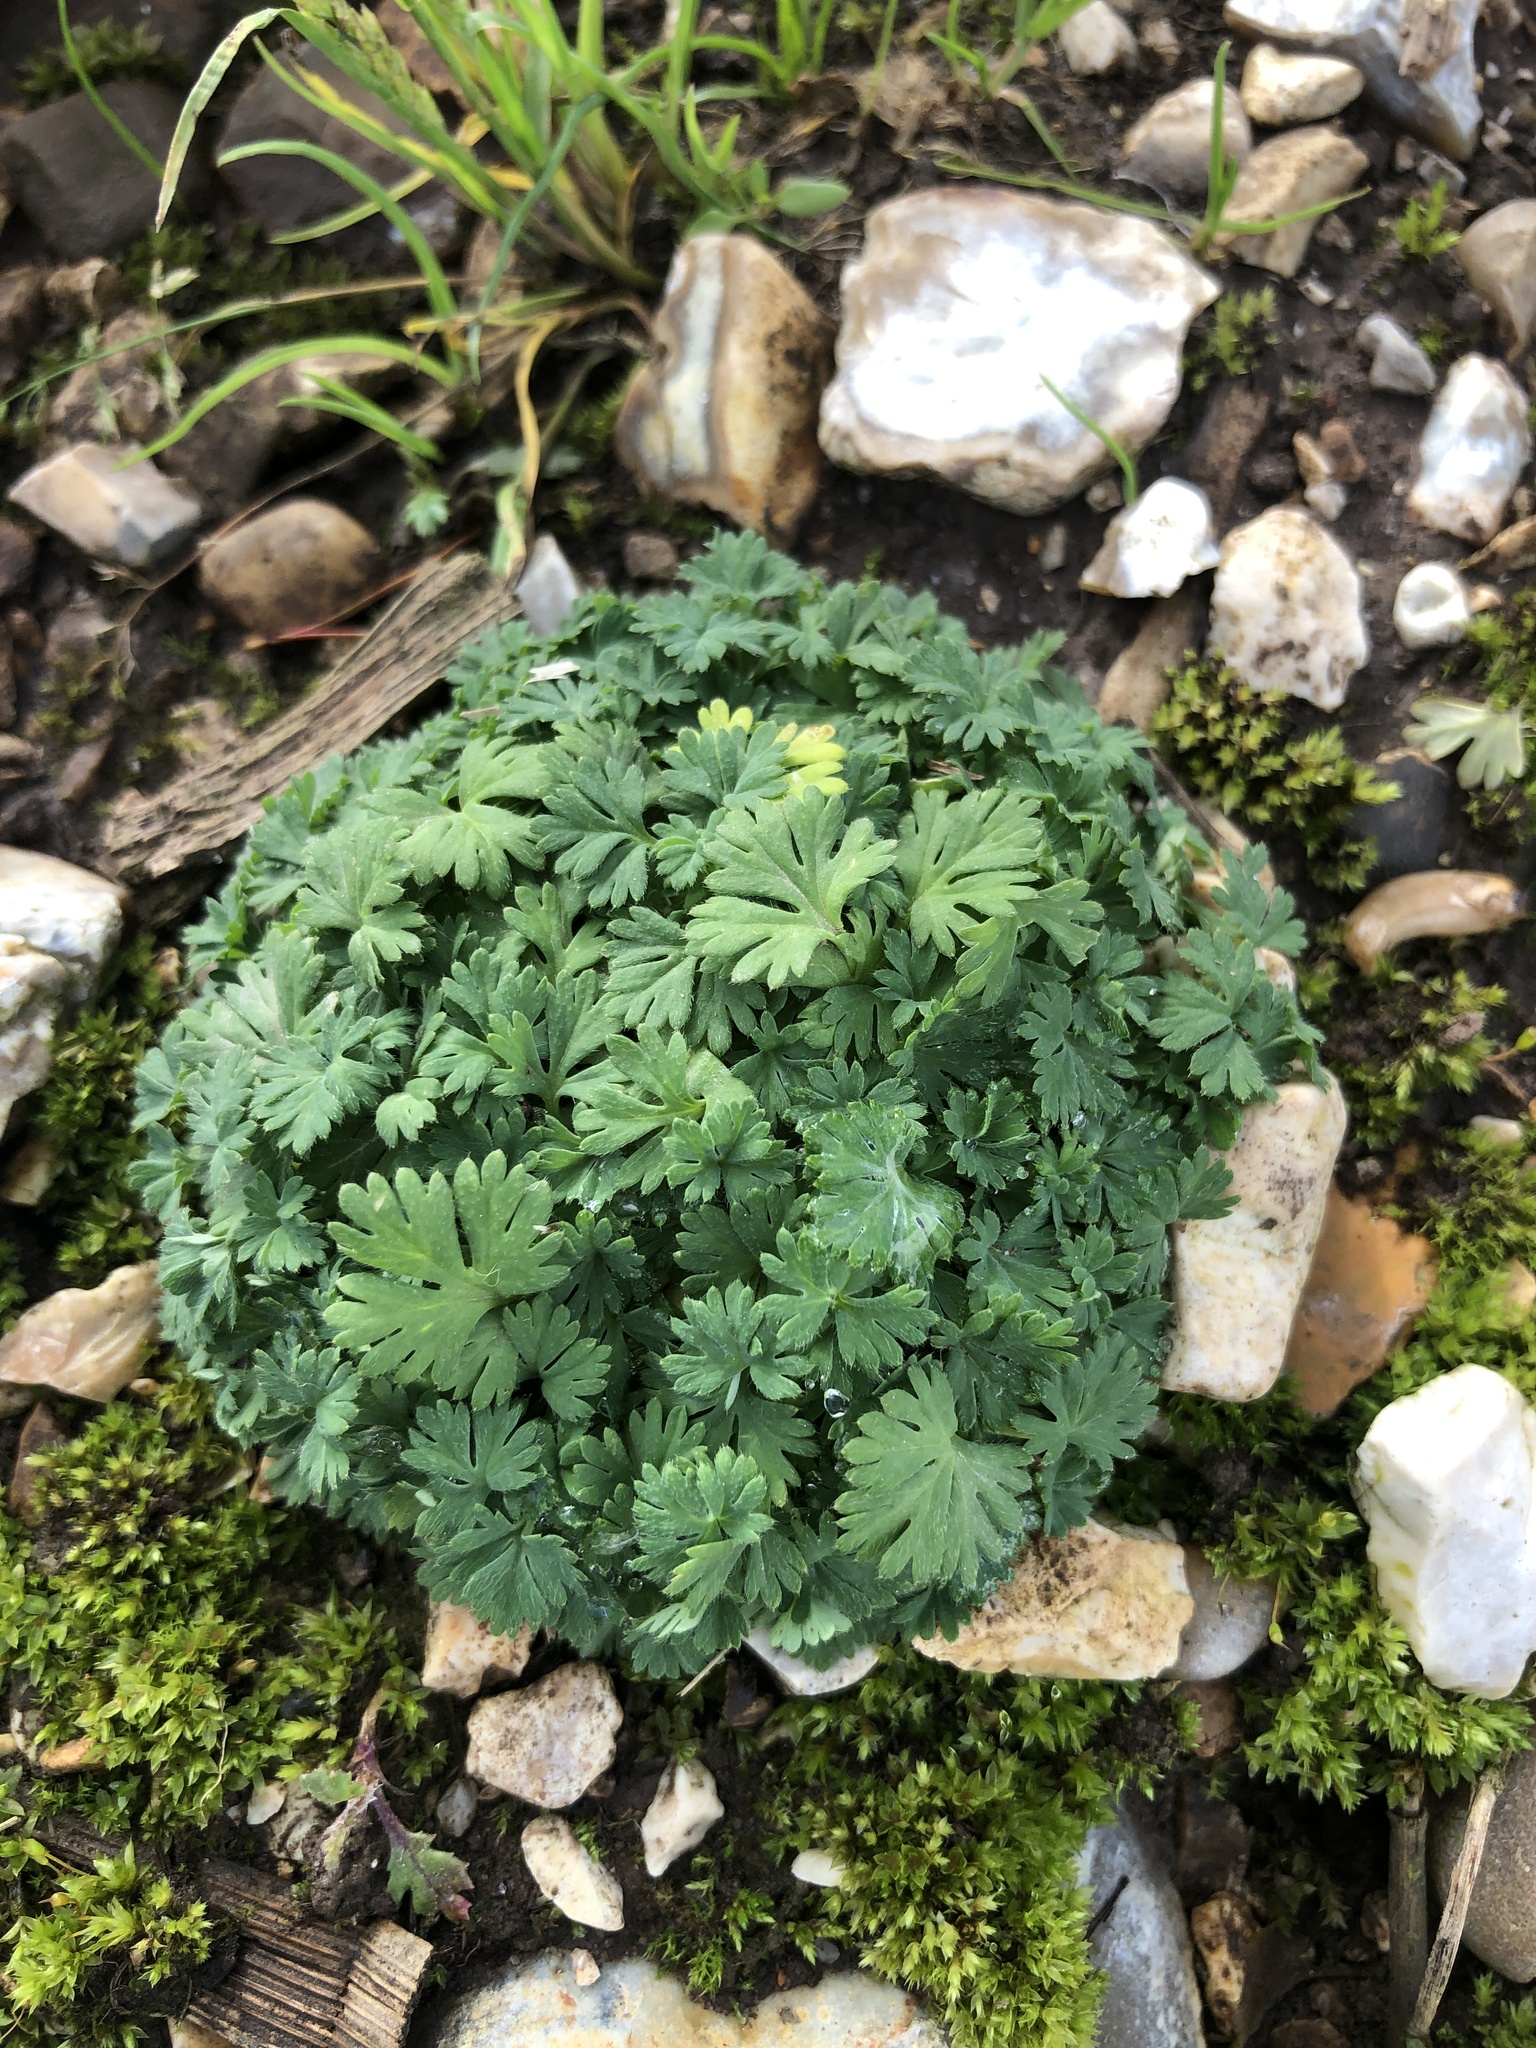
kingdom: Plantae
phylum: Tracheophyta
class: Magnoliopsida
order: Rosales
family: Rosaceae
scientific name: Rosaceae
